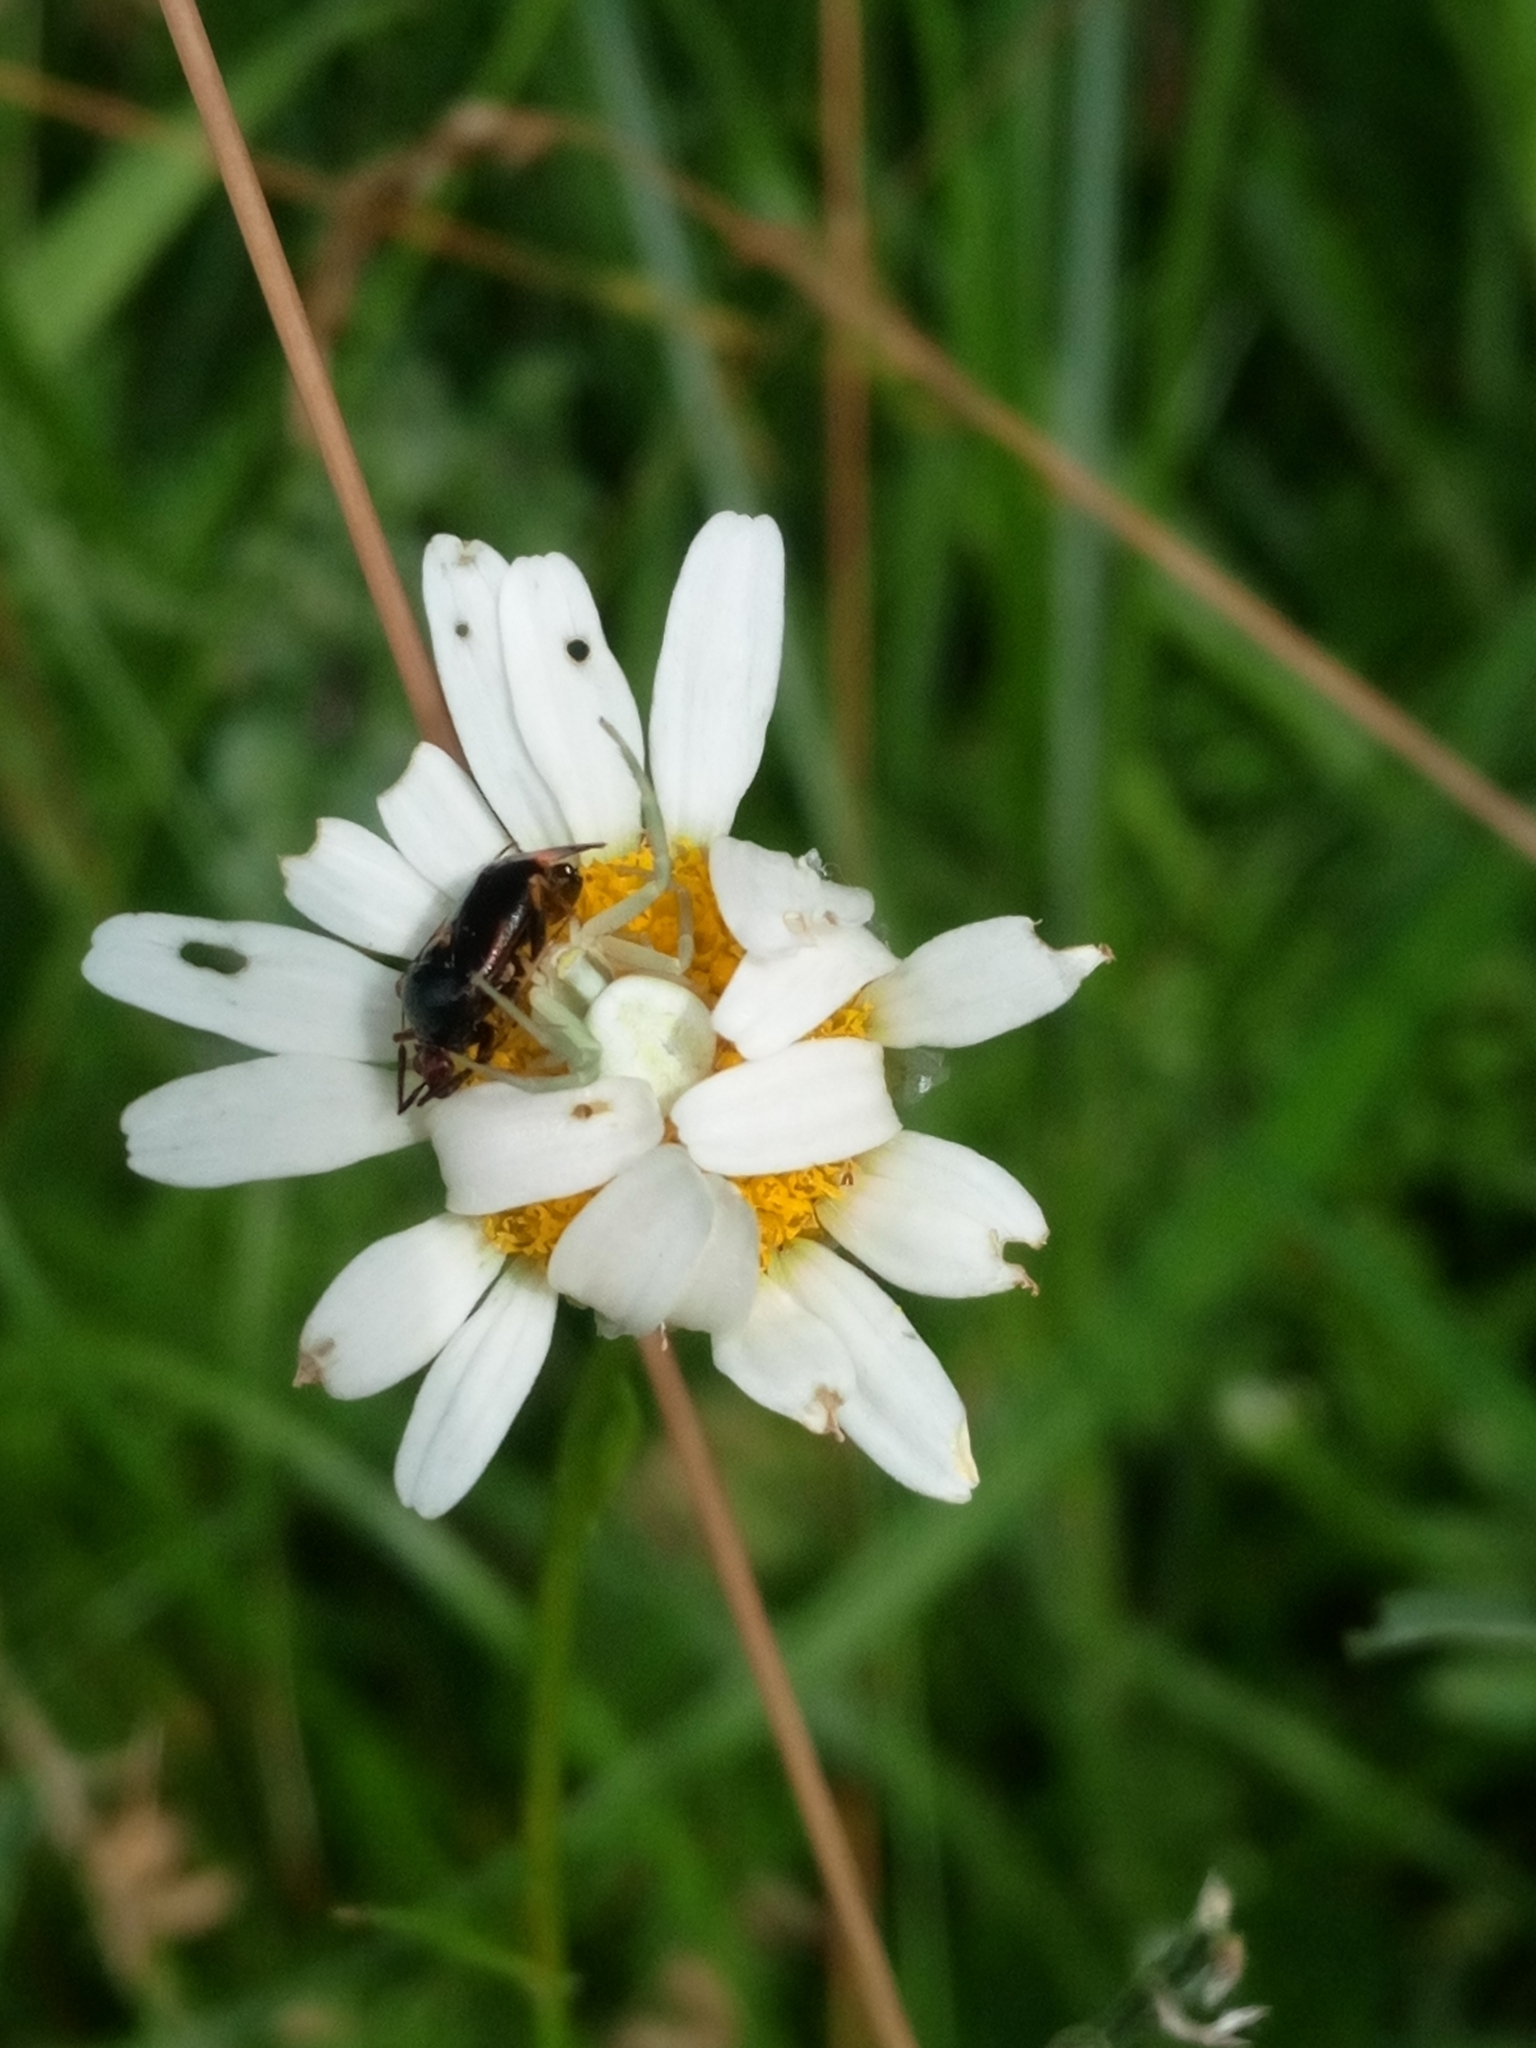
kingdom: Animalia
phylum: Arthropoda
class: Arachnida
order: Araneae
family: Thomisidae
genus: Misumena
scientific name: Misumena vatia
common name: Goldenrod crab spider
